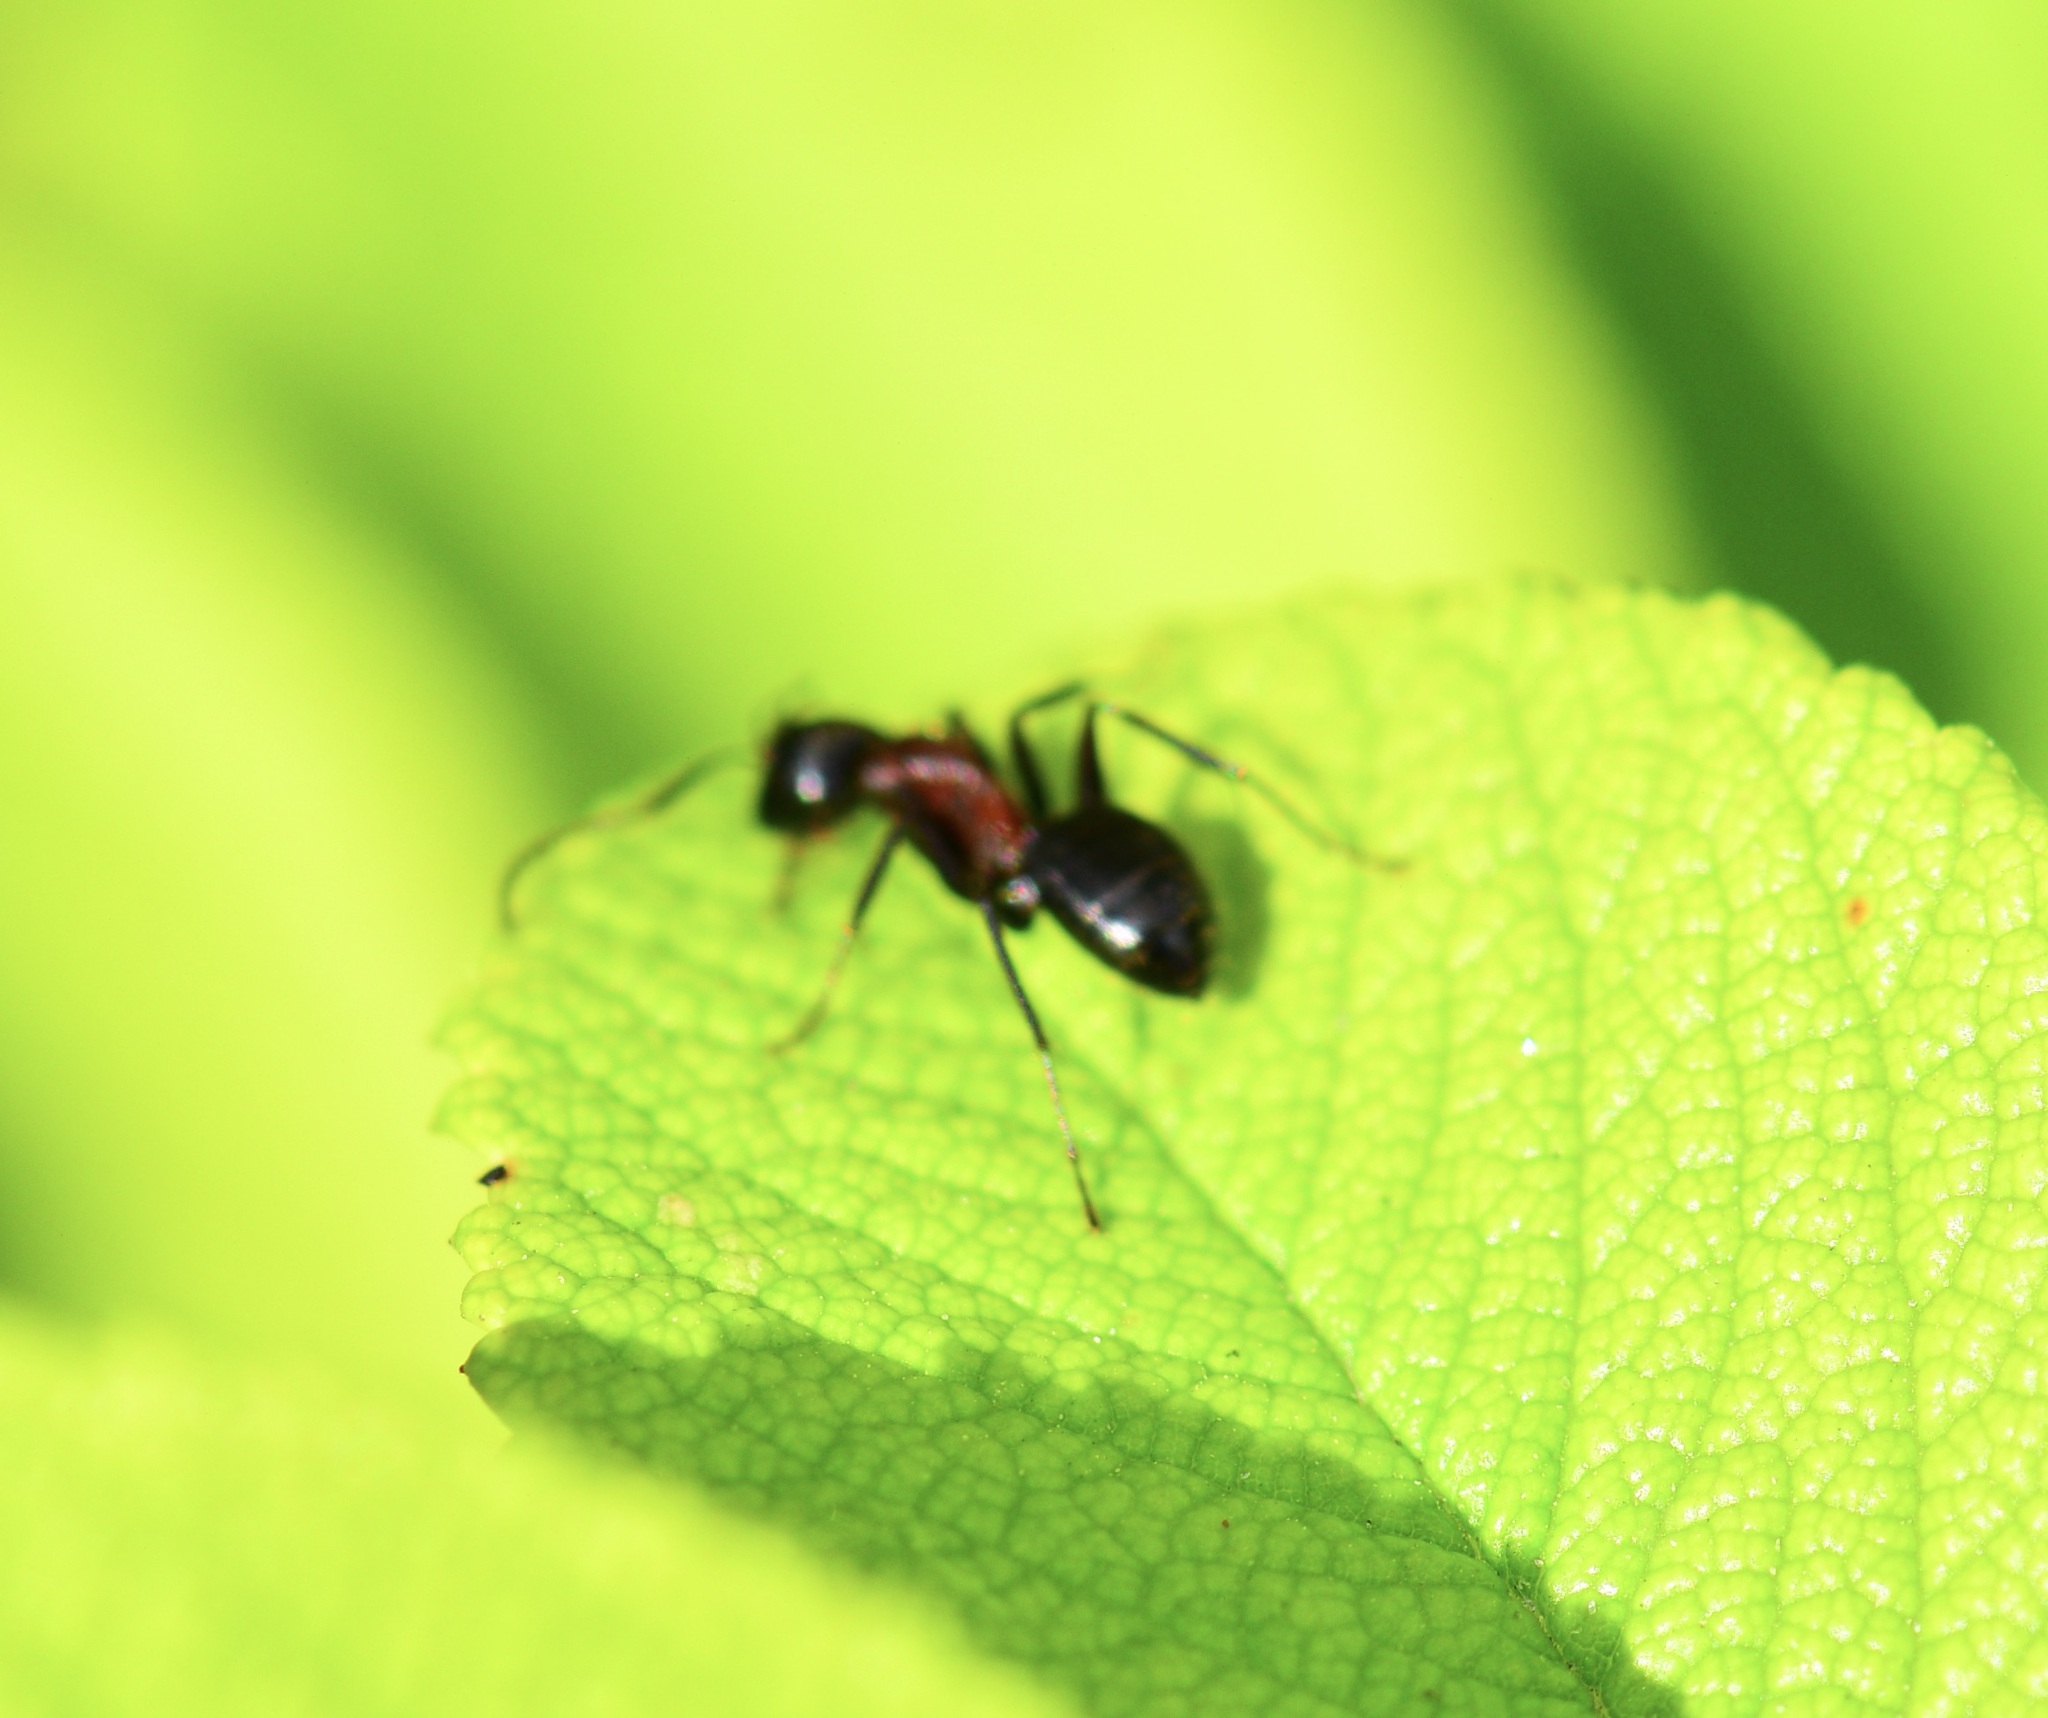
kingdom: Animalia
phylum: Arthropoda
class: Insecta
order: Hymenoptera
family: Formicidae
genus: Camponotus
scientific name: Camponotus novaeboracensis
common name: New york carpenter ant
